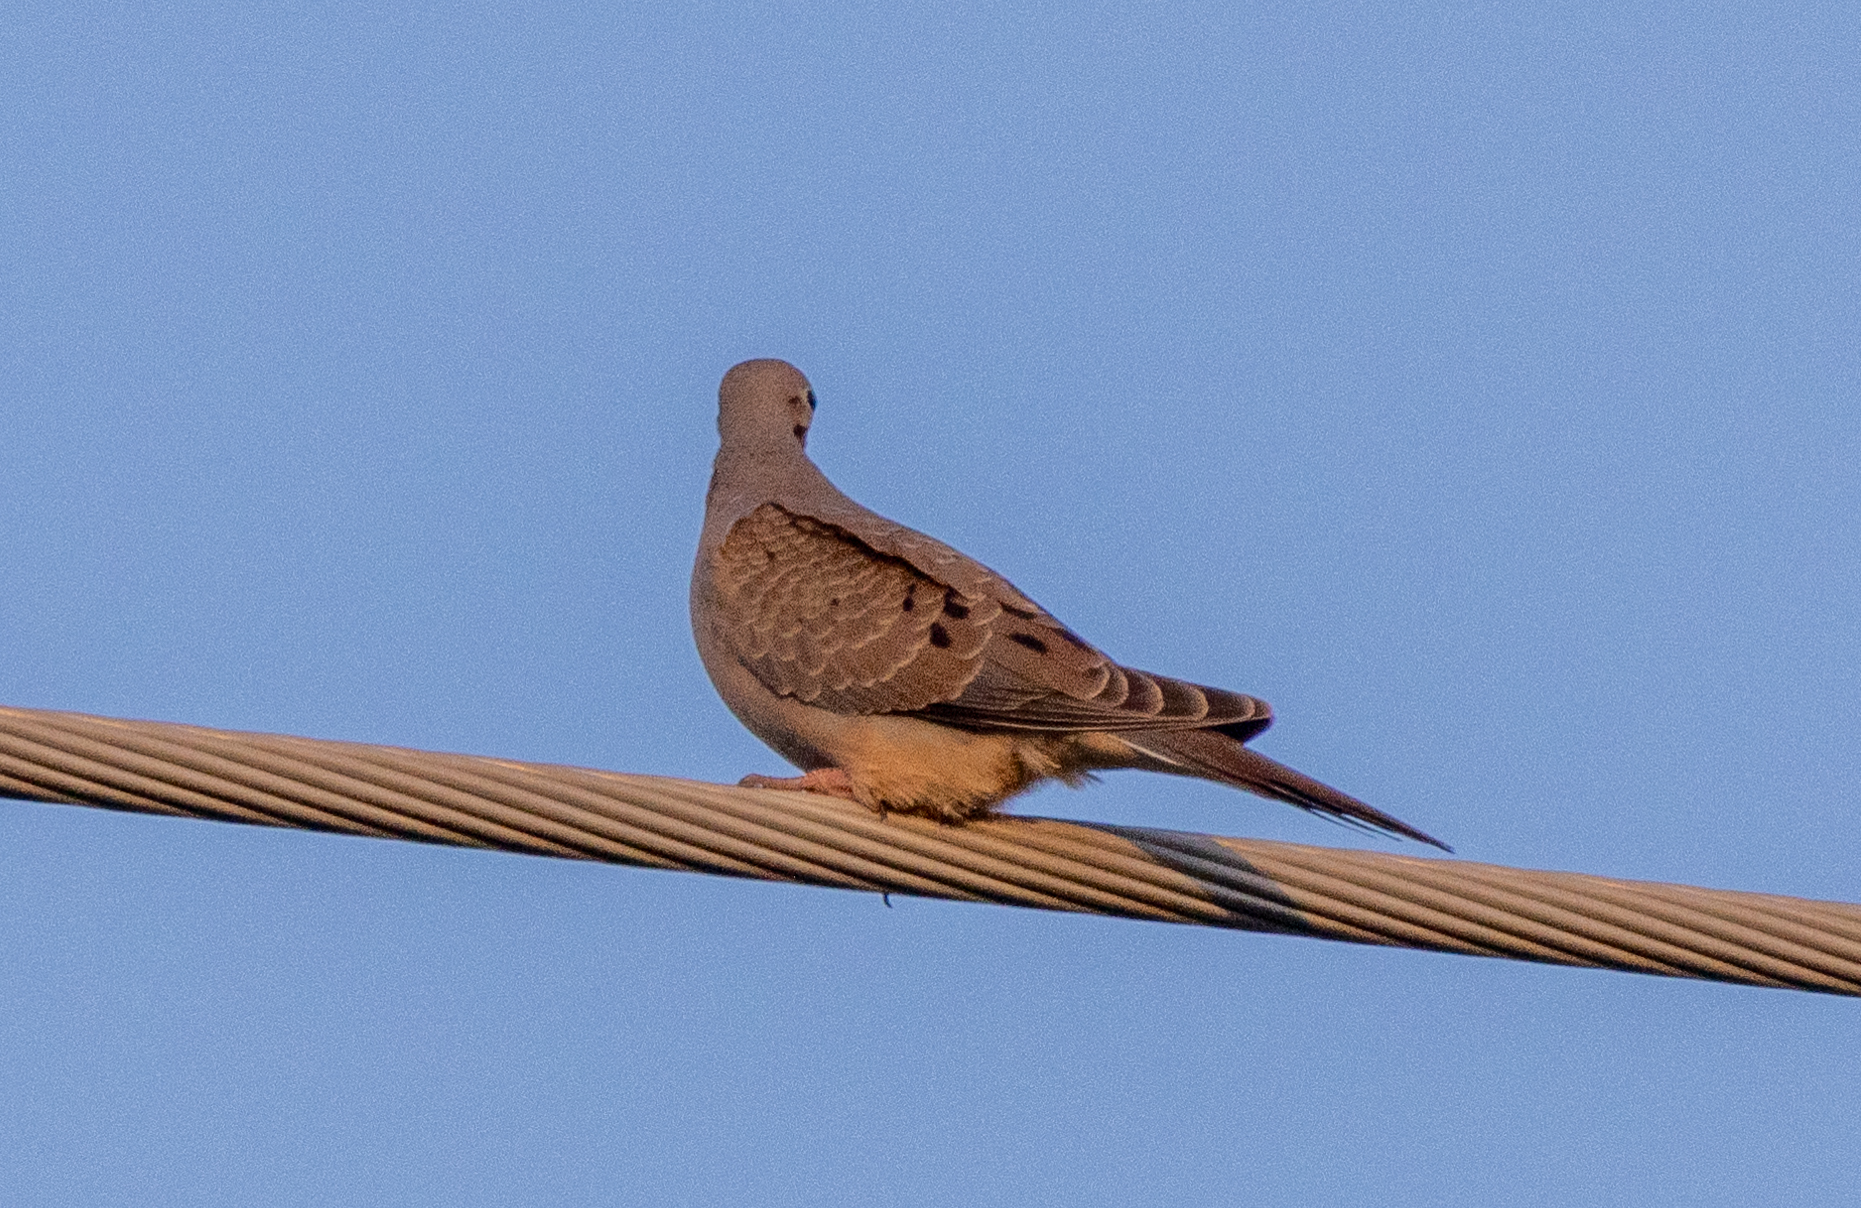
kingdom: Animalia
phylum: Chordata
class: Aves
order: Columbiformes
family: Columbidae
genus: Zenaida
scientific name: Zenaida macroura
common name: Mourning dove
